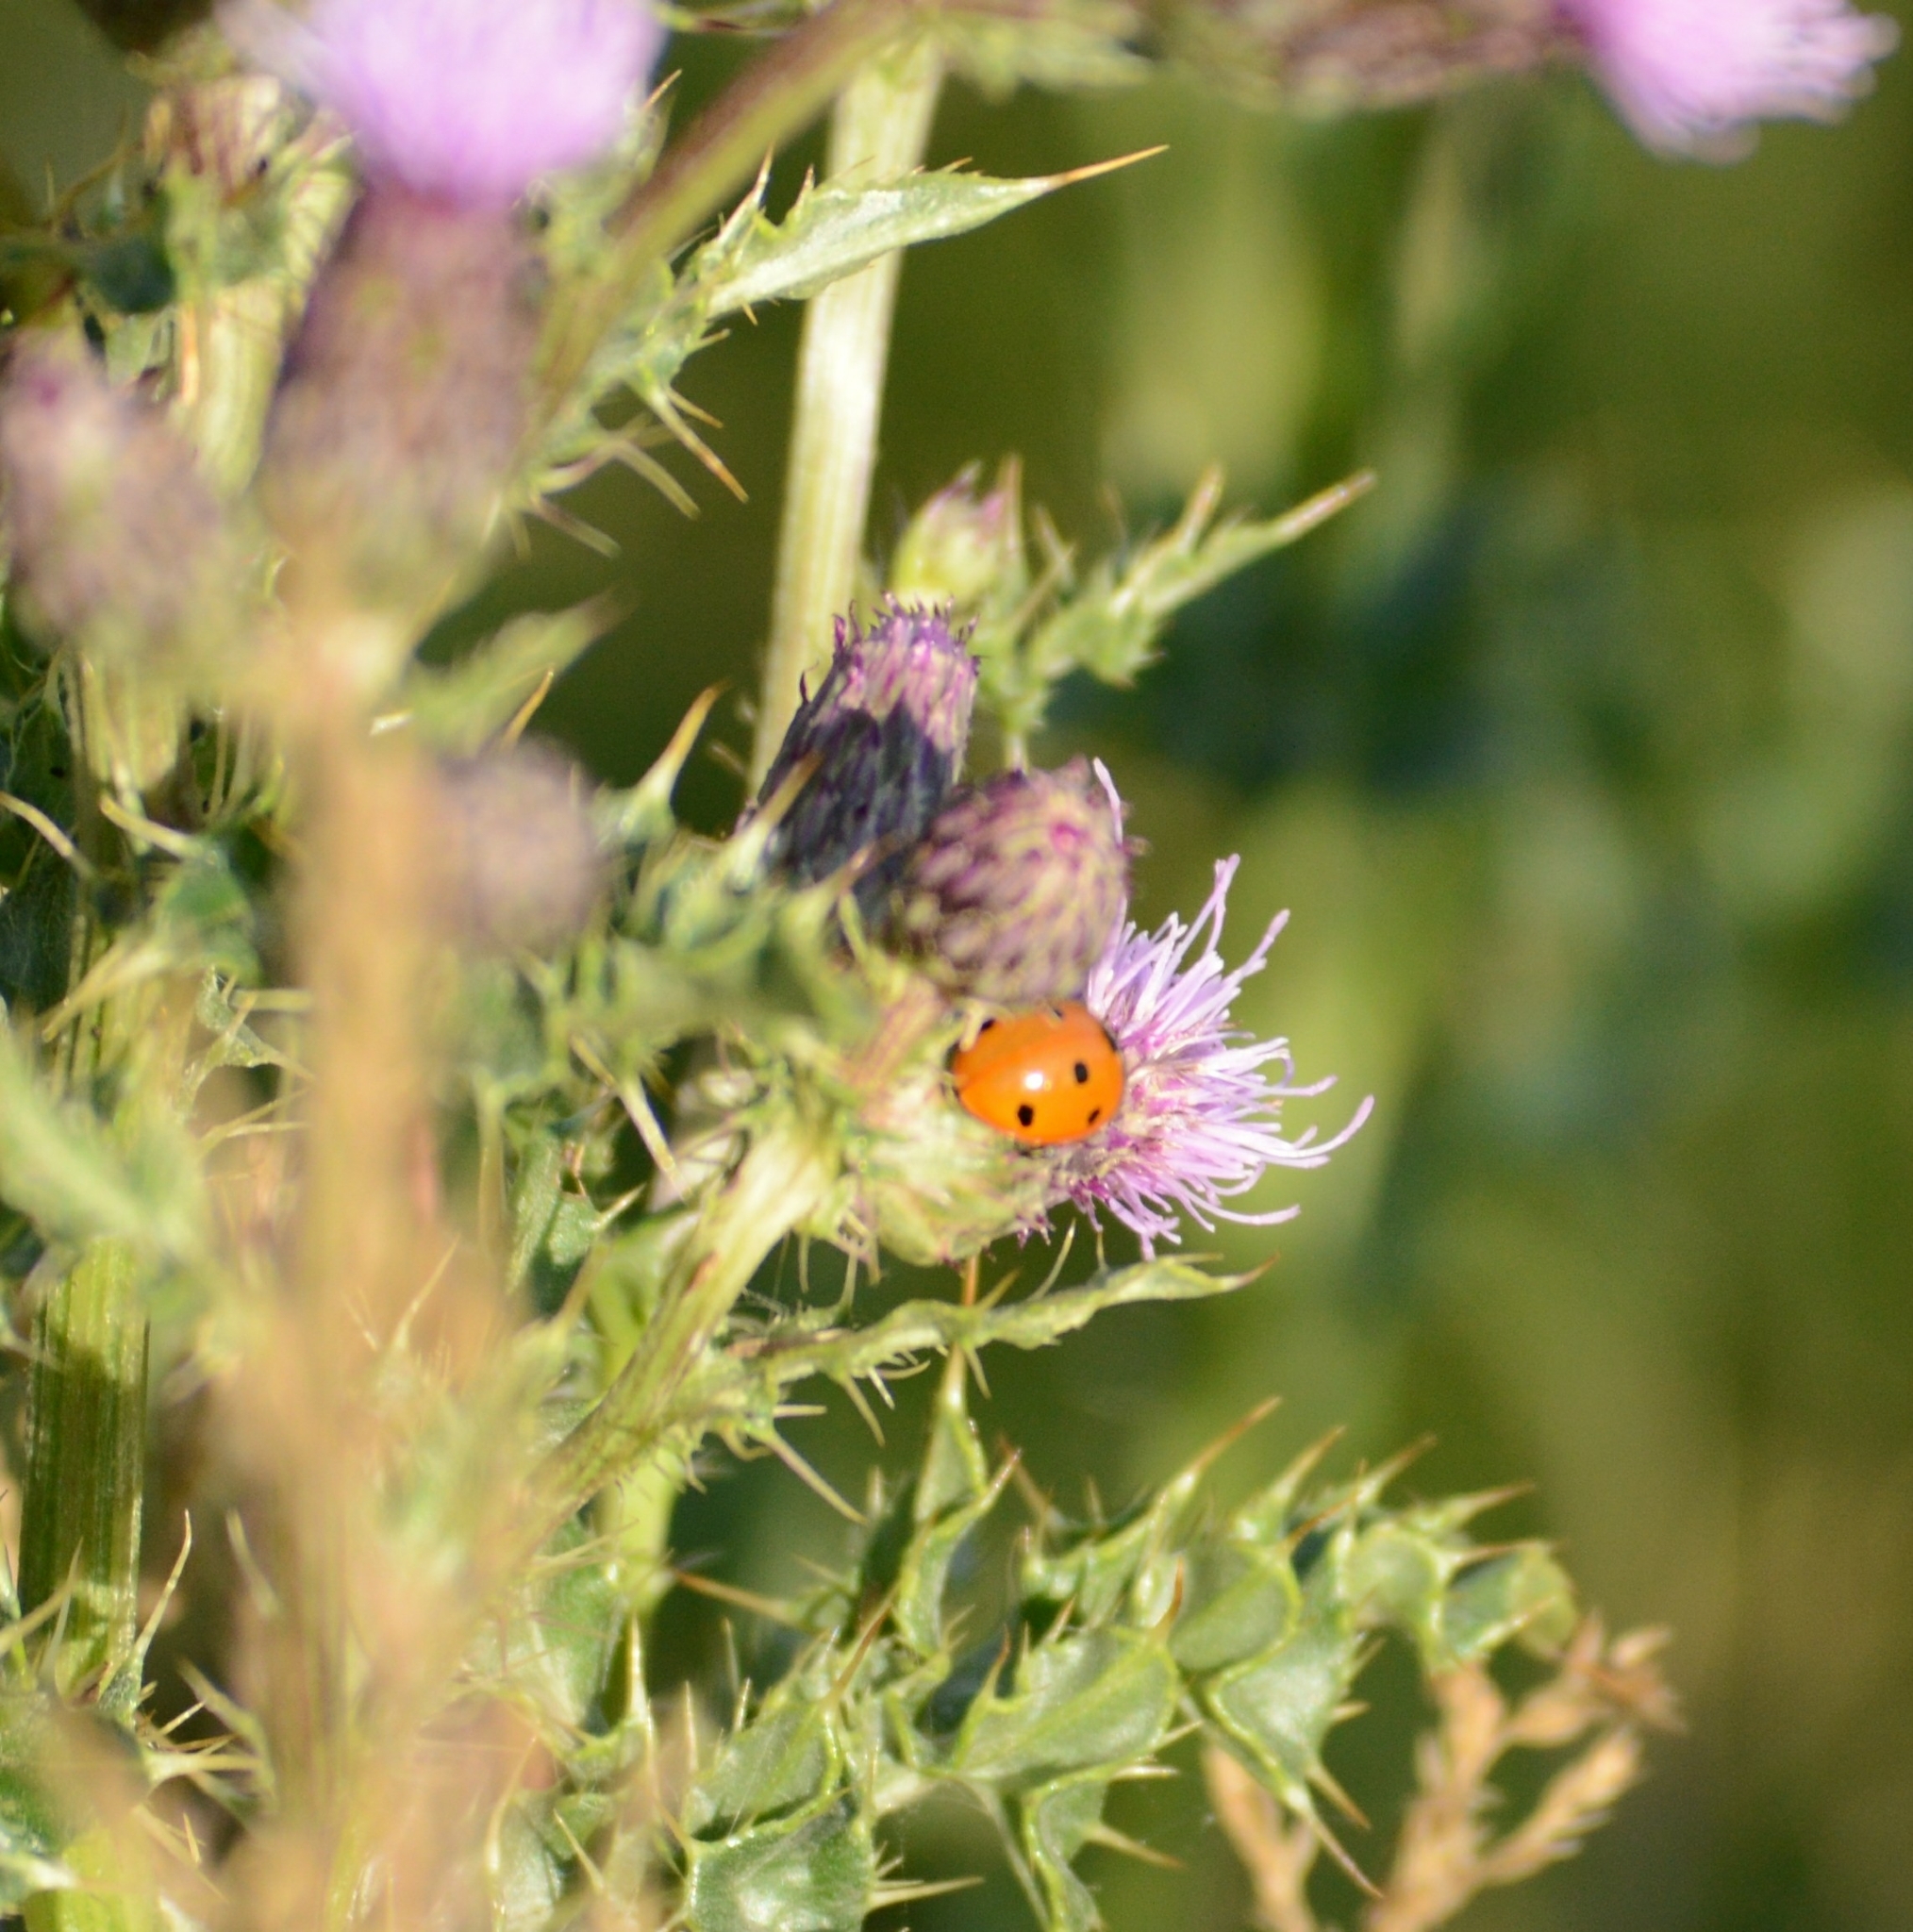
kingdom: Animalia
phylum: Arthropoda
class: Insecta
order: Coleoptera
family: Coccinellidae
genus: Coccinella
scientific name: Coccinella septempunctata
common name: Sevenspotted lady beetle
